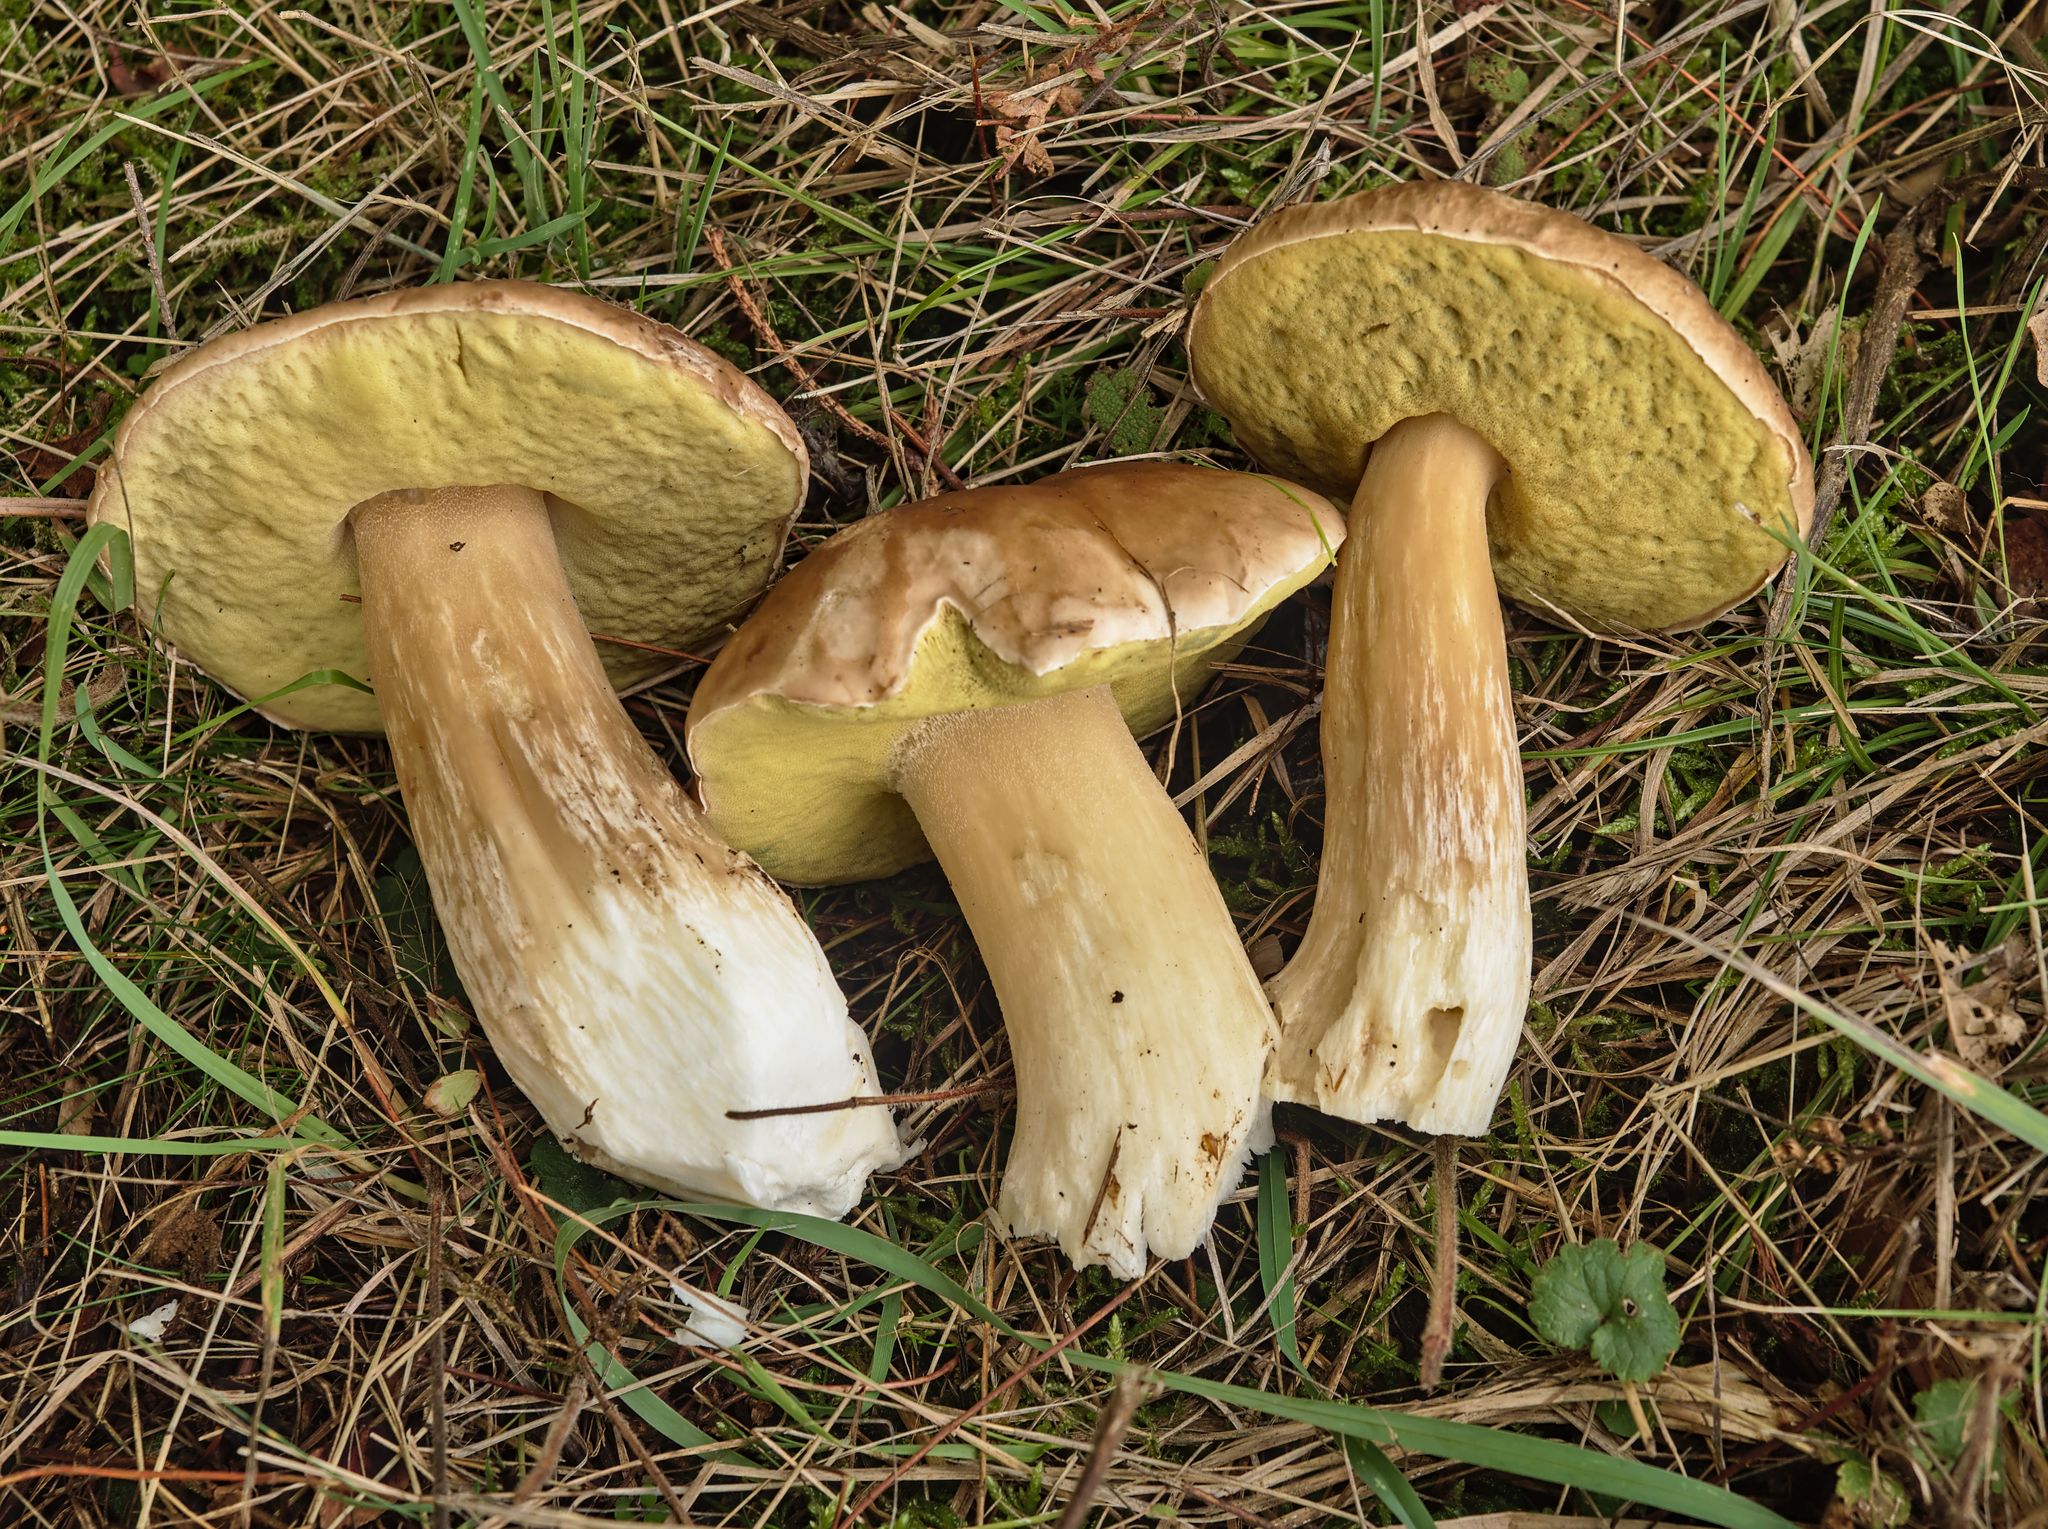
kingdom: Fungi
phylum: Basidiomycota
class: Agaricomycetes
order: Boletales
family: Boletaceae
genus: Boletus
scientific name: Boletus edulis
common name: Cep
